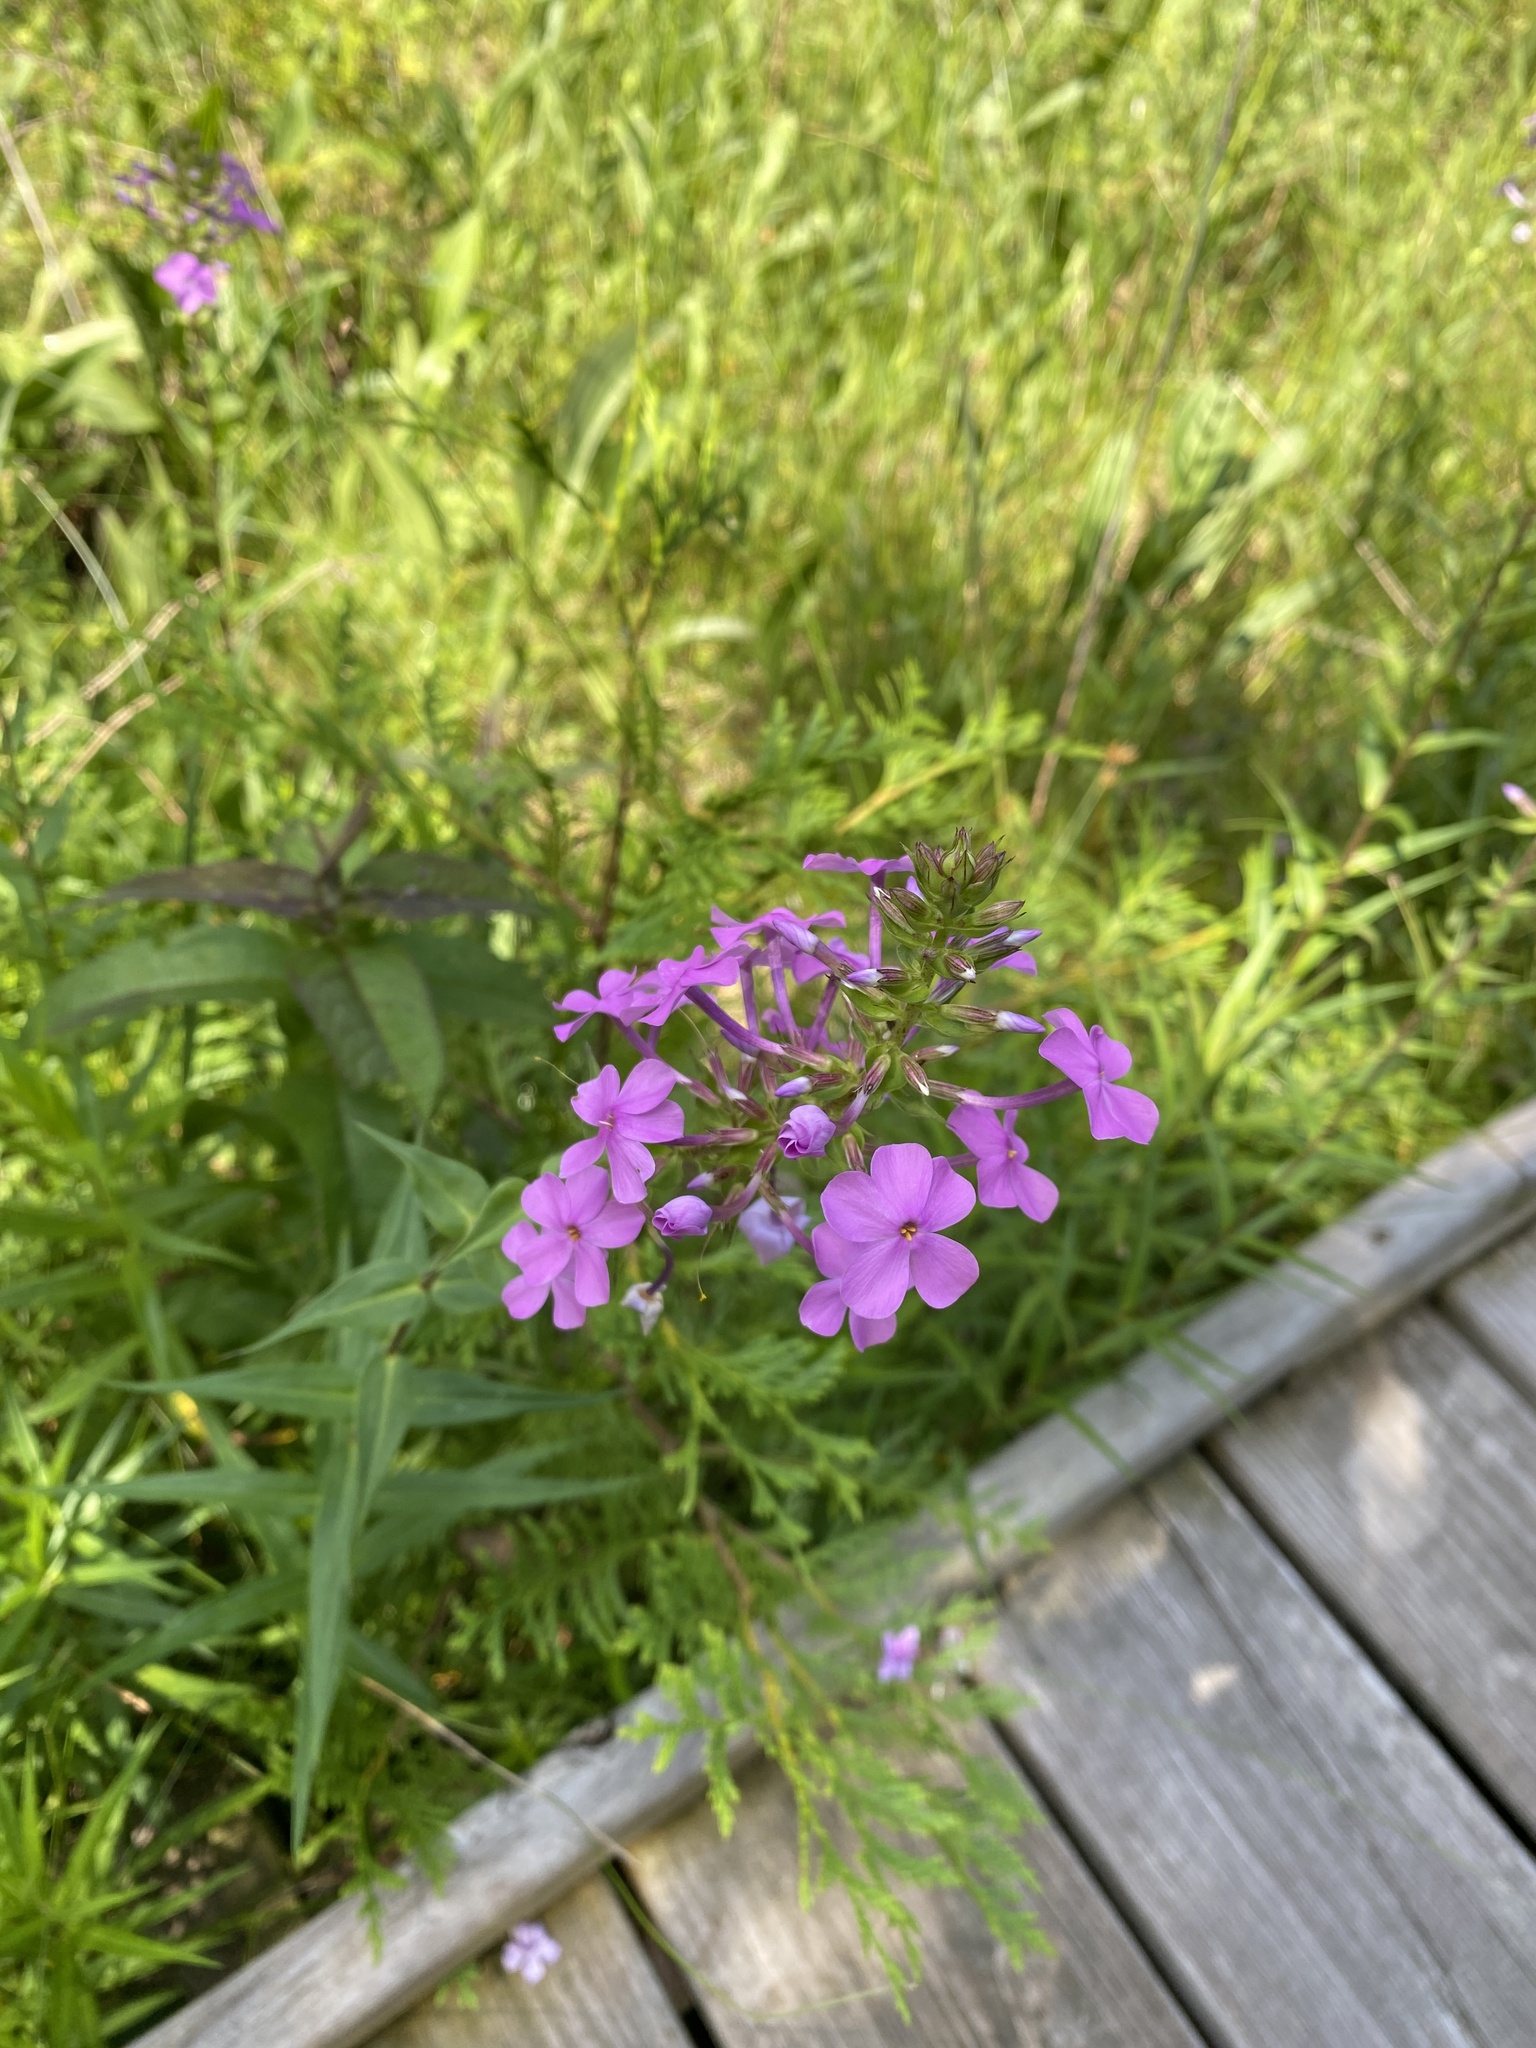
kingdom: Plantae
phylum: Tracheophyta
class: Magnoliopsida
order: Ericales
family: Polemoniaceae
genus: Phlox
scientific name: Phlox maculata
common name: Meadow phlox
